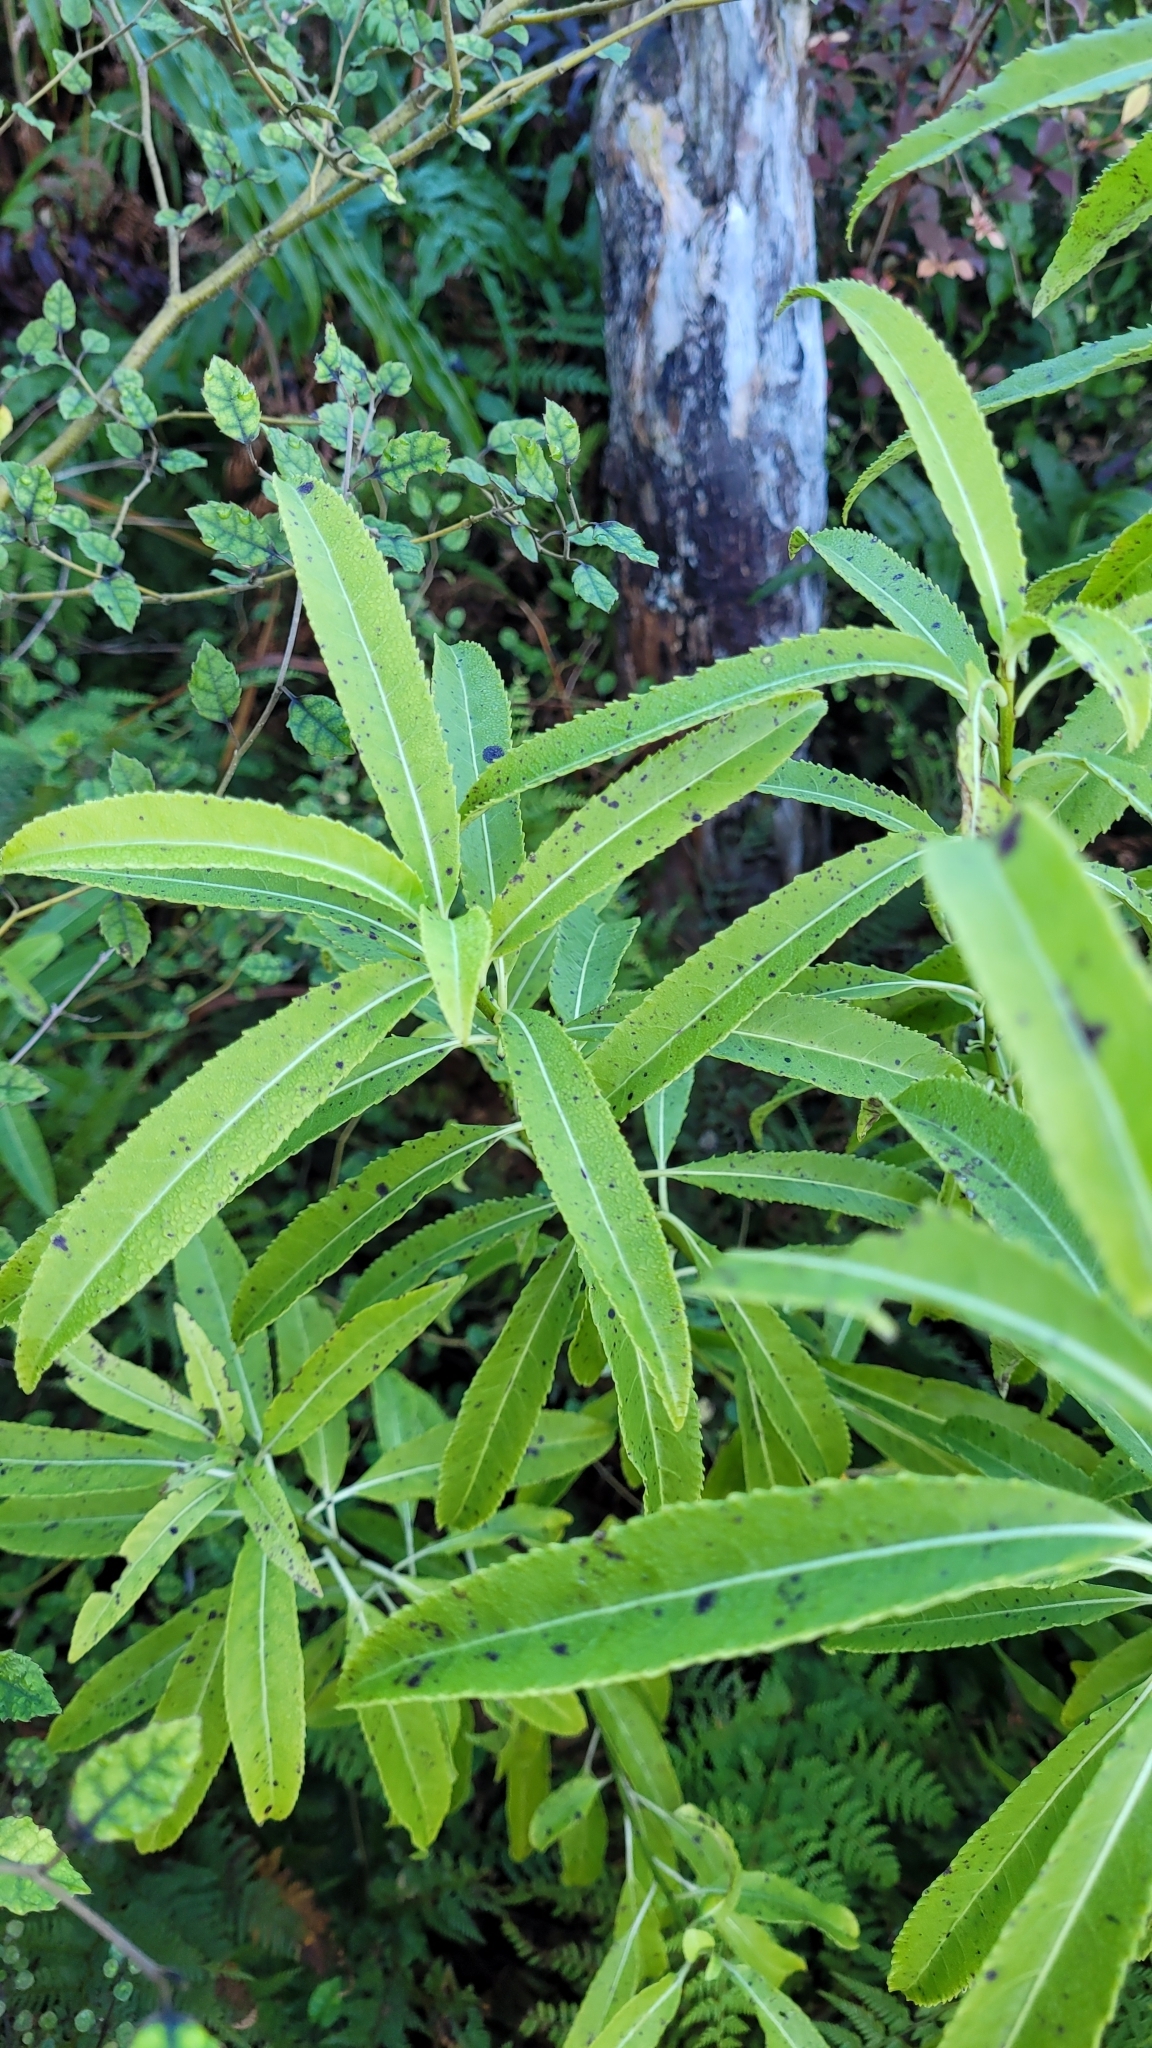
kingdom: Plantae
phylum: Tracheophyta
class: Magnoliopsida
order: Malpighiales
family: Violaceae
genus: Melicytus
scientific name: Melicytus lanceolatus
